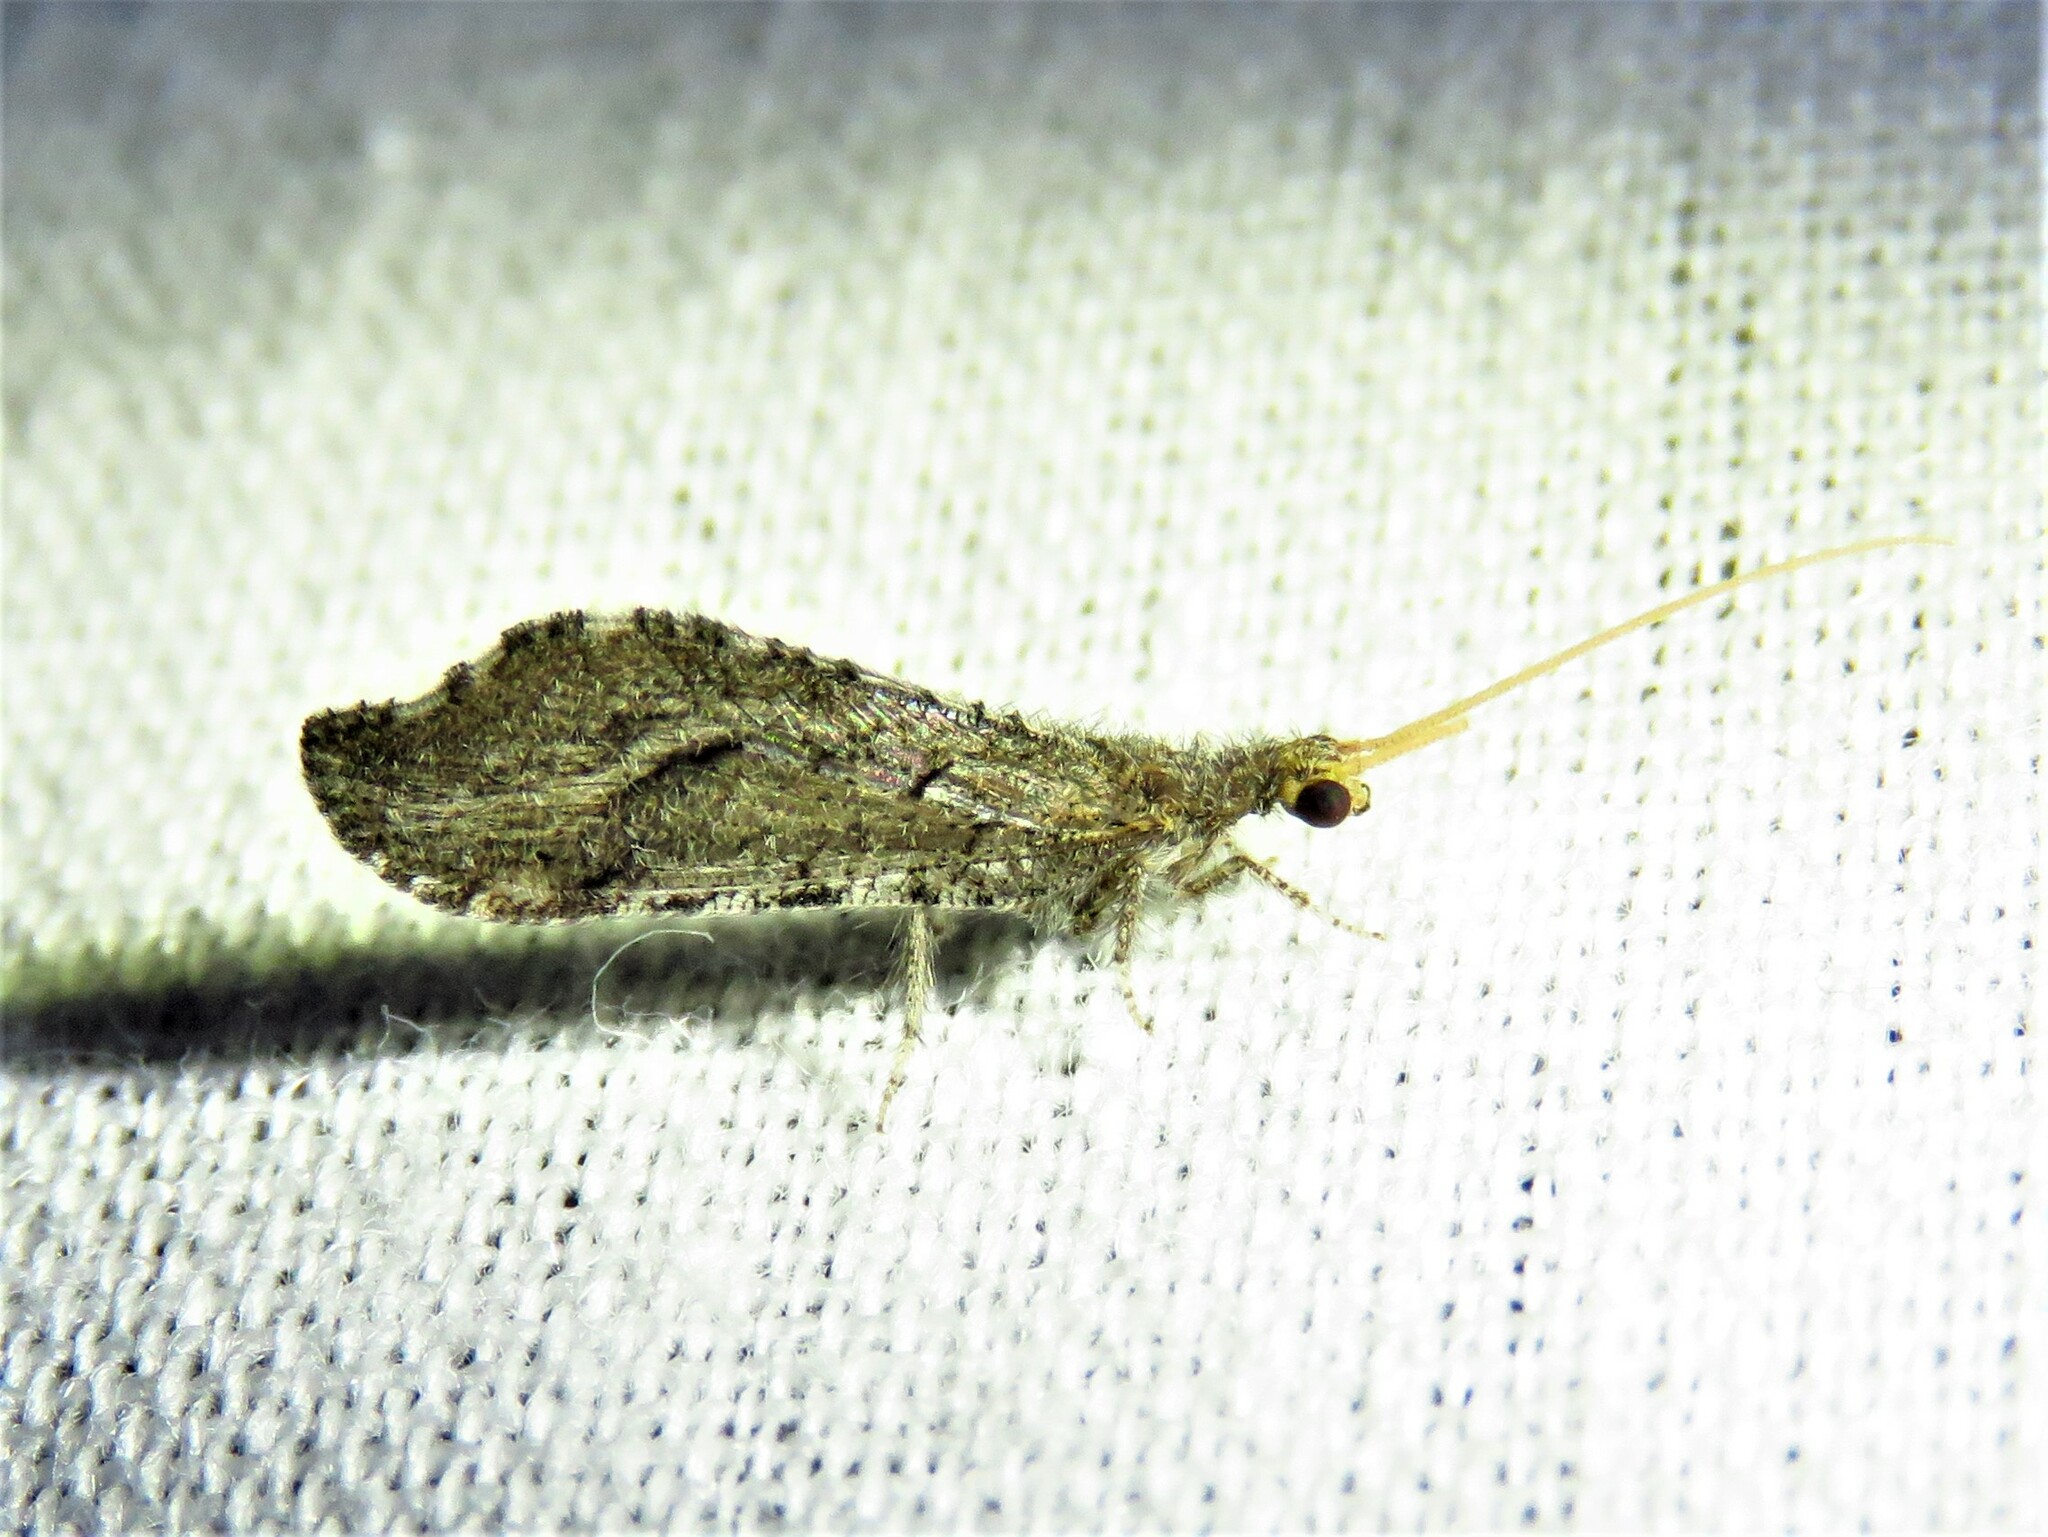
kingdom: Animalia
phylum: Arthropoda
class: Insecta
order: Neuroptera
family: Berothidae
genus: Lomamyia
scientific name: Lomamyia squamosa
